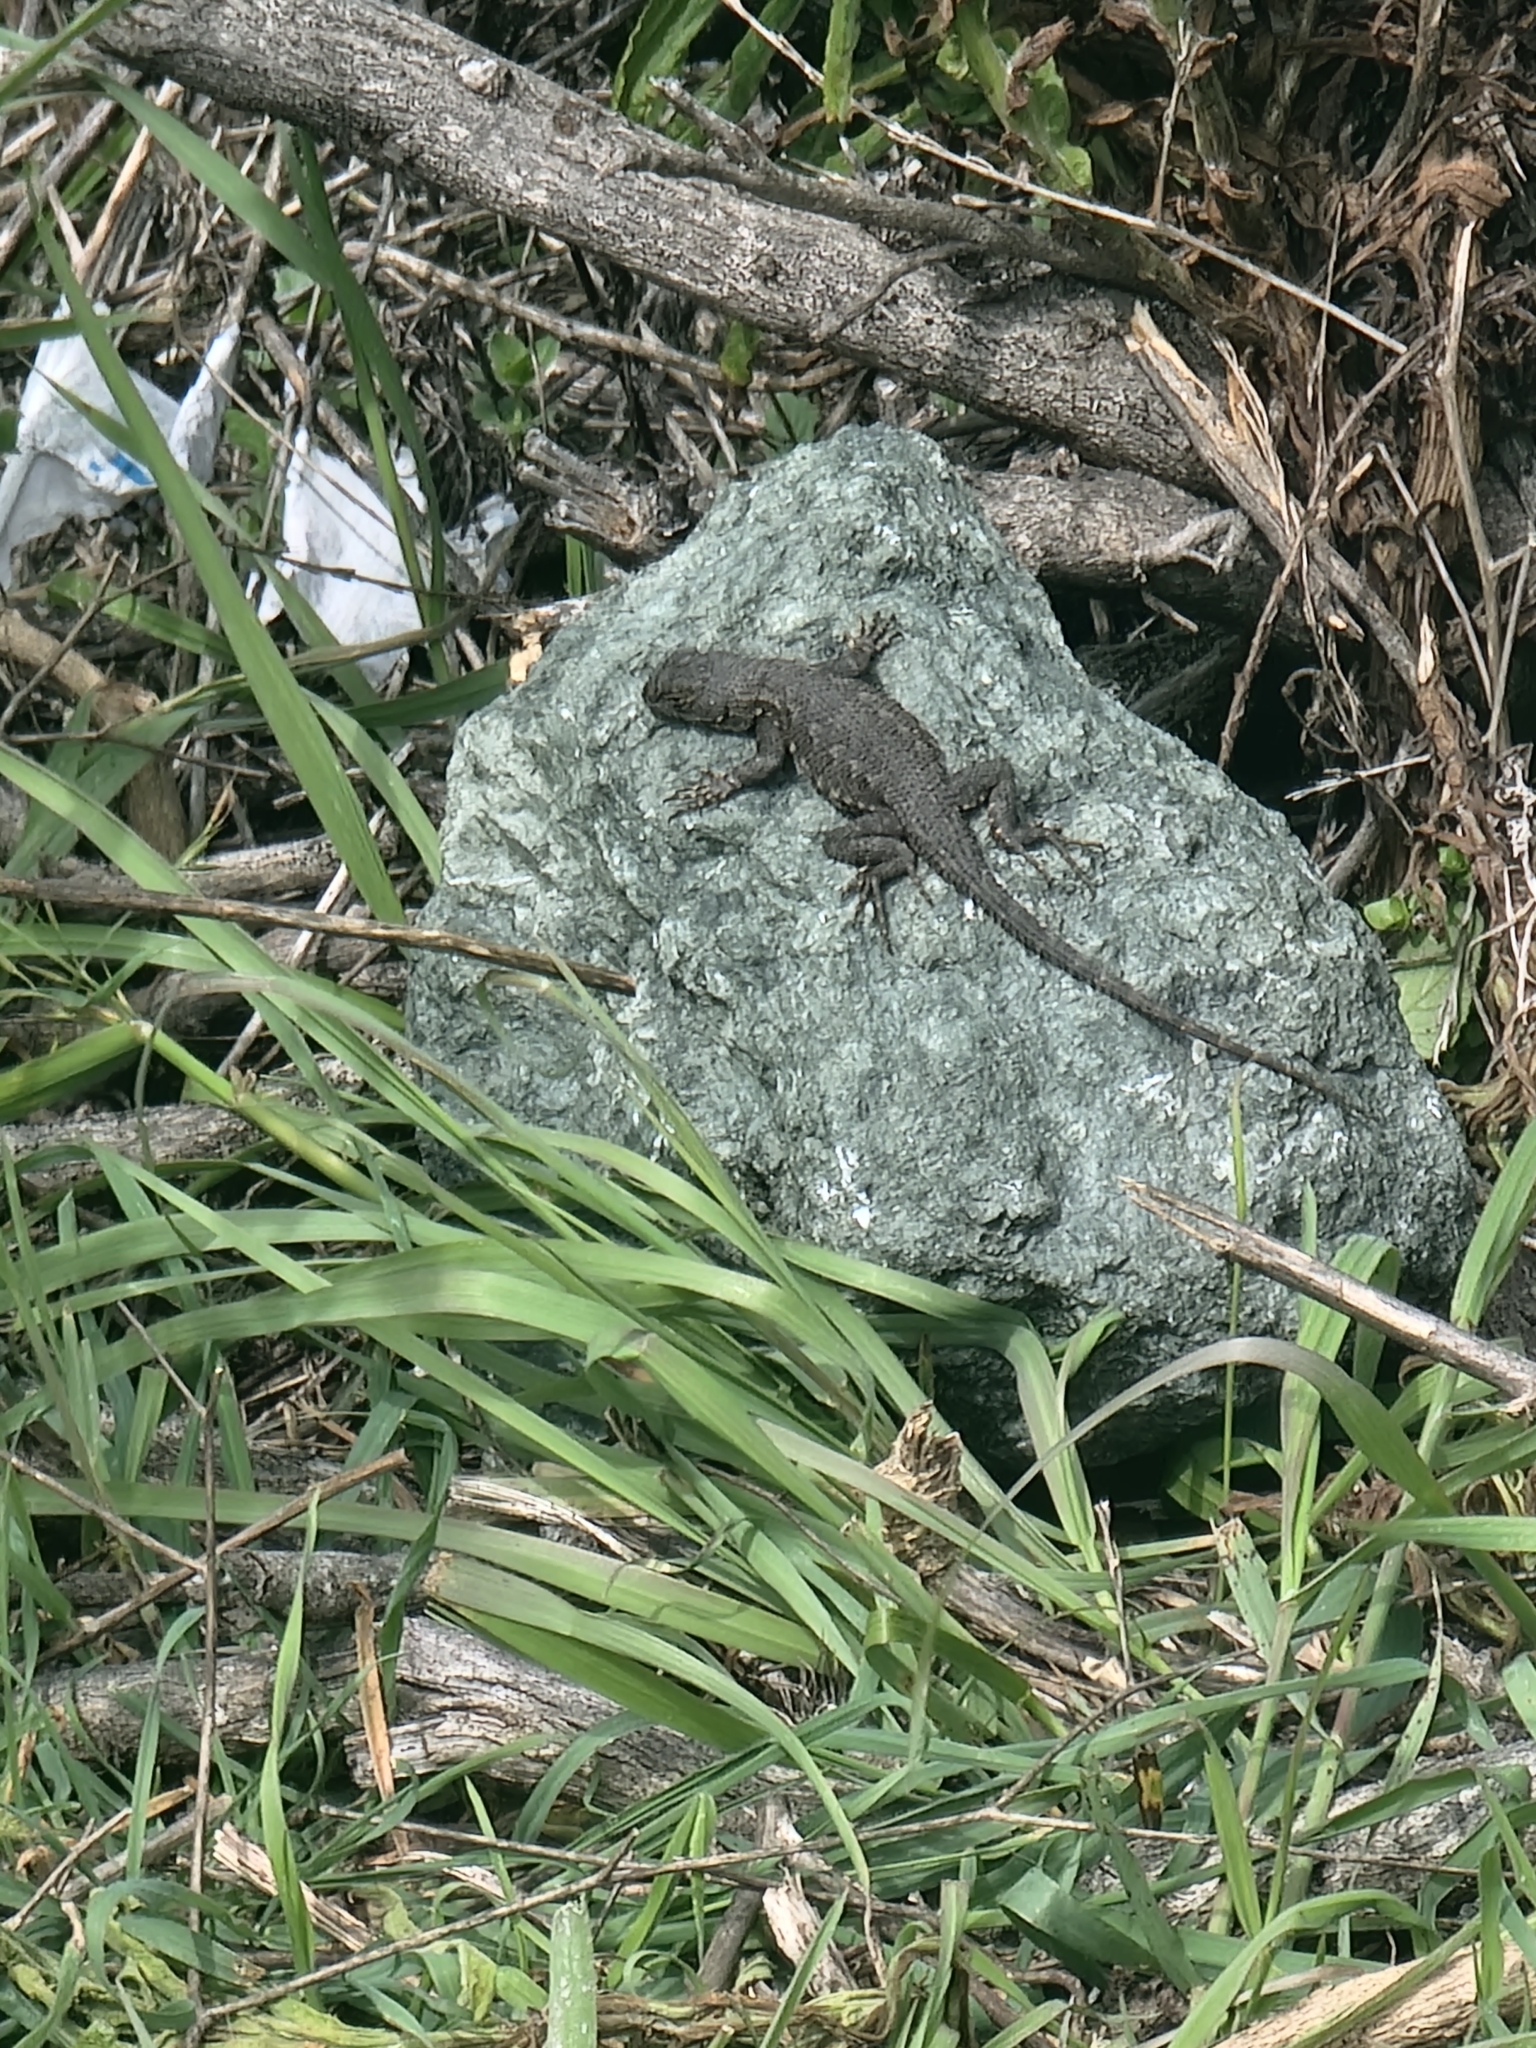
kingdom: Animalia
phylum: Chordata
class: Squamata
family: Phrynosomatidae
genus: Sceloporus
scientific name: Sceloporus occidentalis
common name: Western fence lizard
